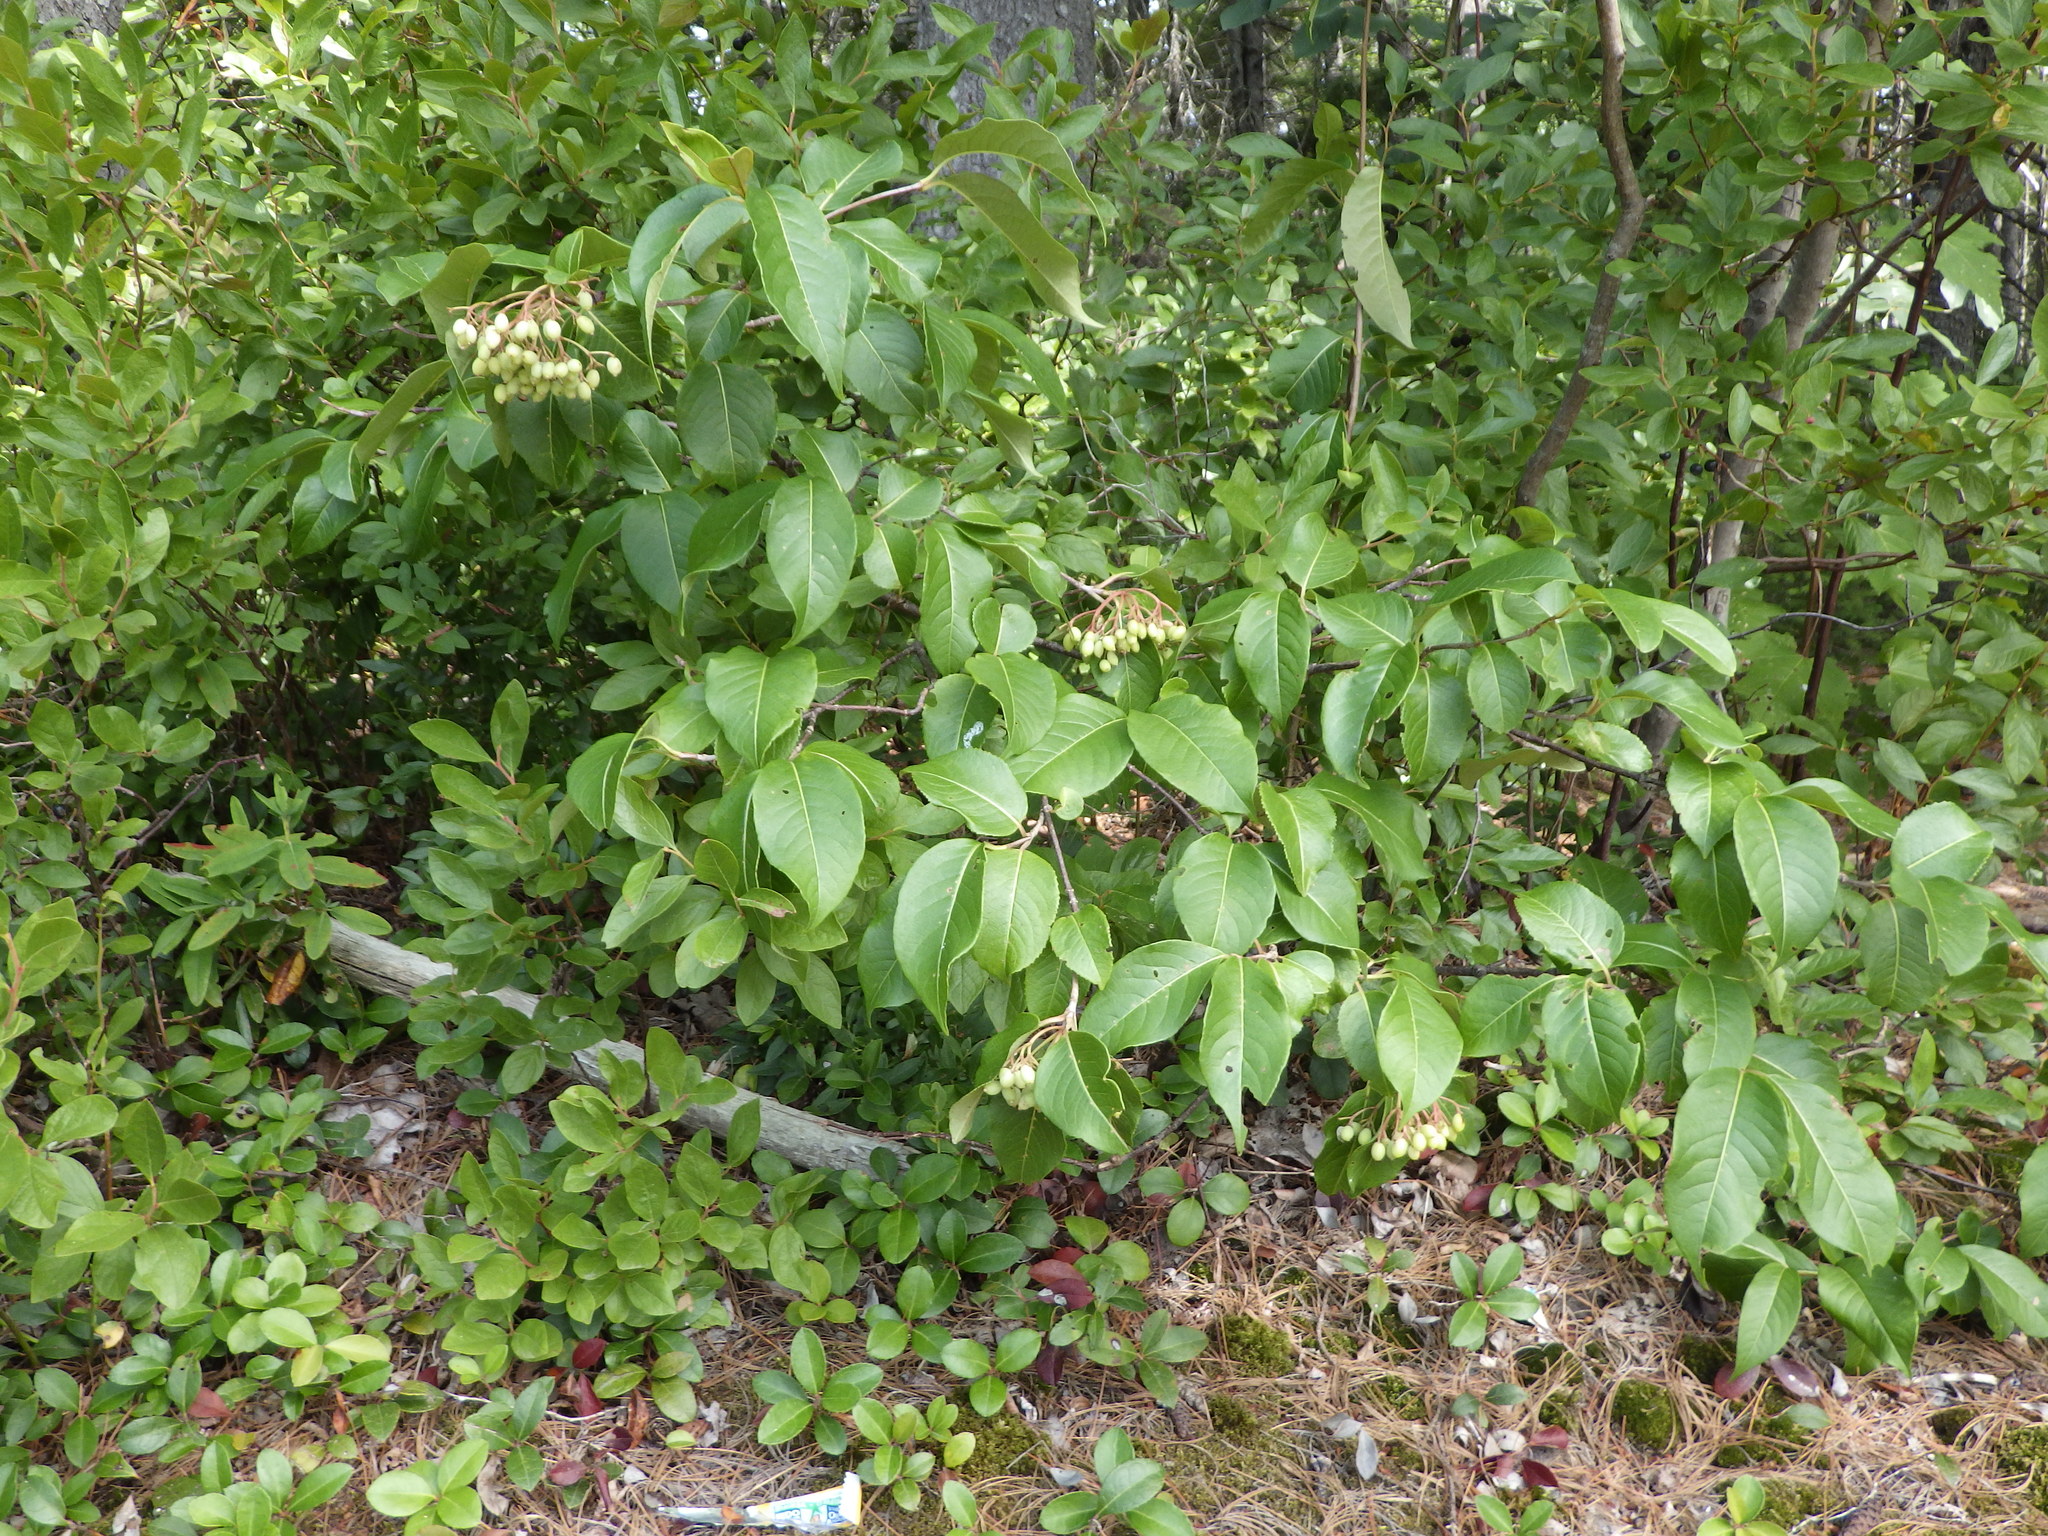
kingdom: Plantae
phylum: Tracheophyta
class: Magnoliopsida
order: Dipsacales
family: Viburnaceae
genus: Viburnum
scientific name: Viburnum cassinoides
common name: Swamp haw
